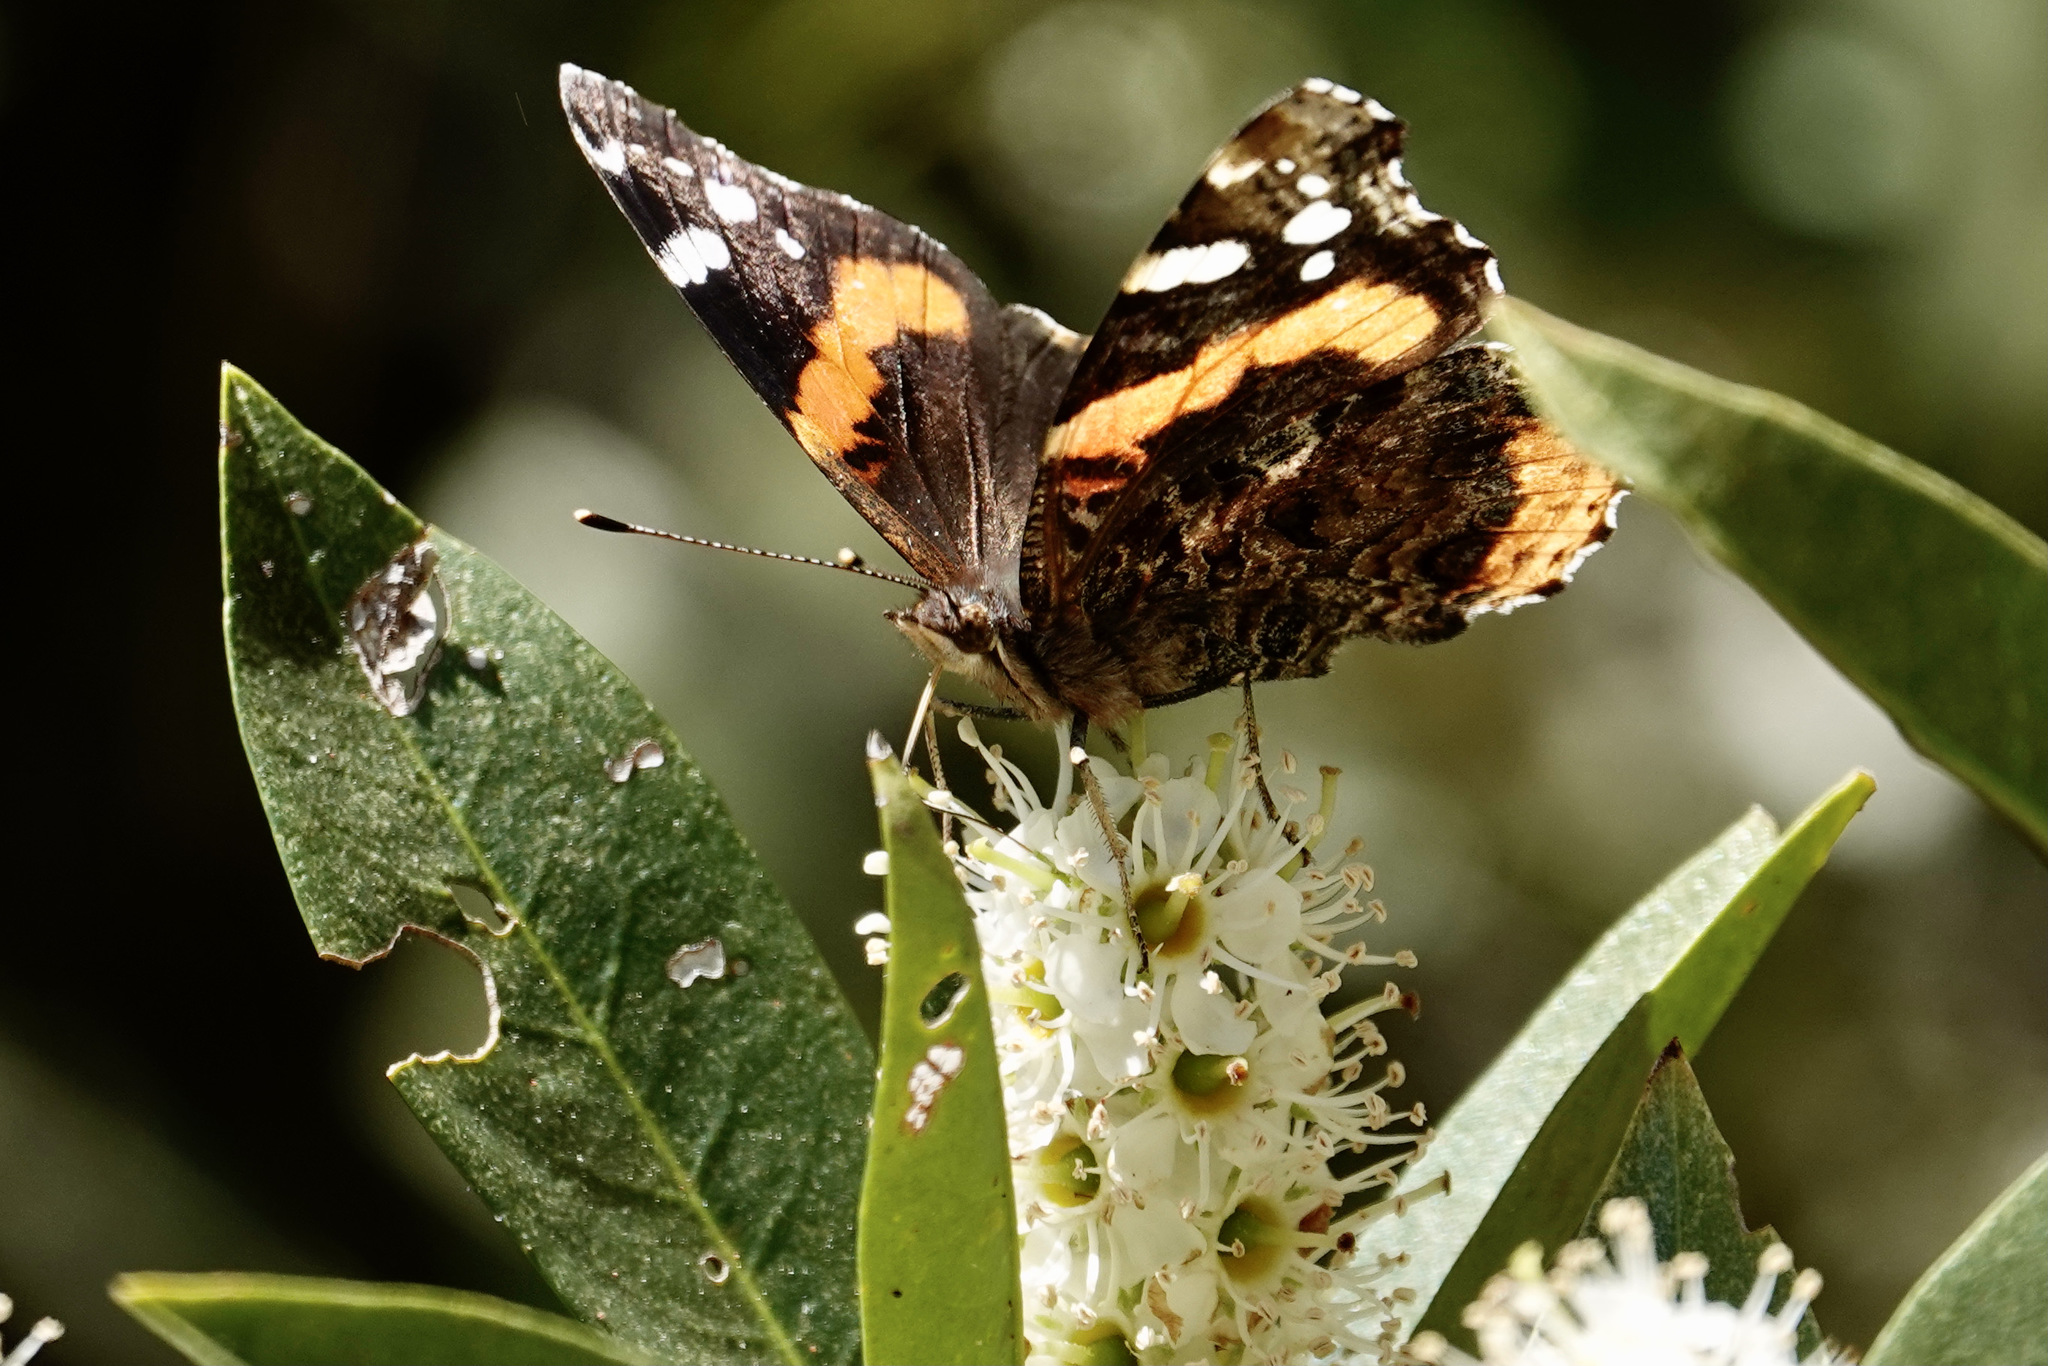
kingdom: Animalia
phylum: Arthropoda
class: Insecta
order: Lepidoptera
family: Nymphalidae
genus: Vanessa
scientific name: Vanessa atalanta
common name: Red admiral
